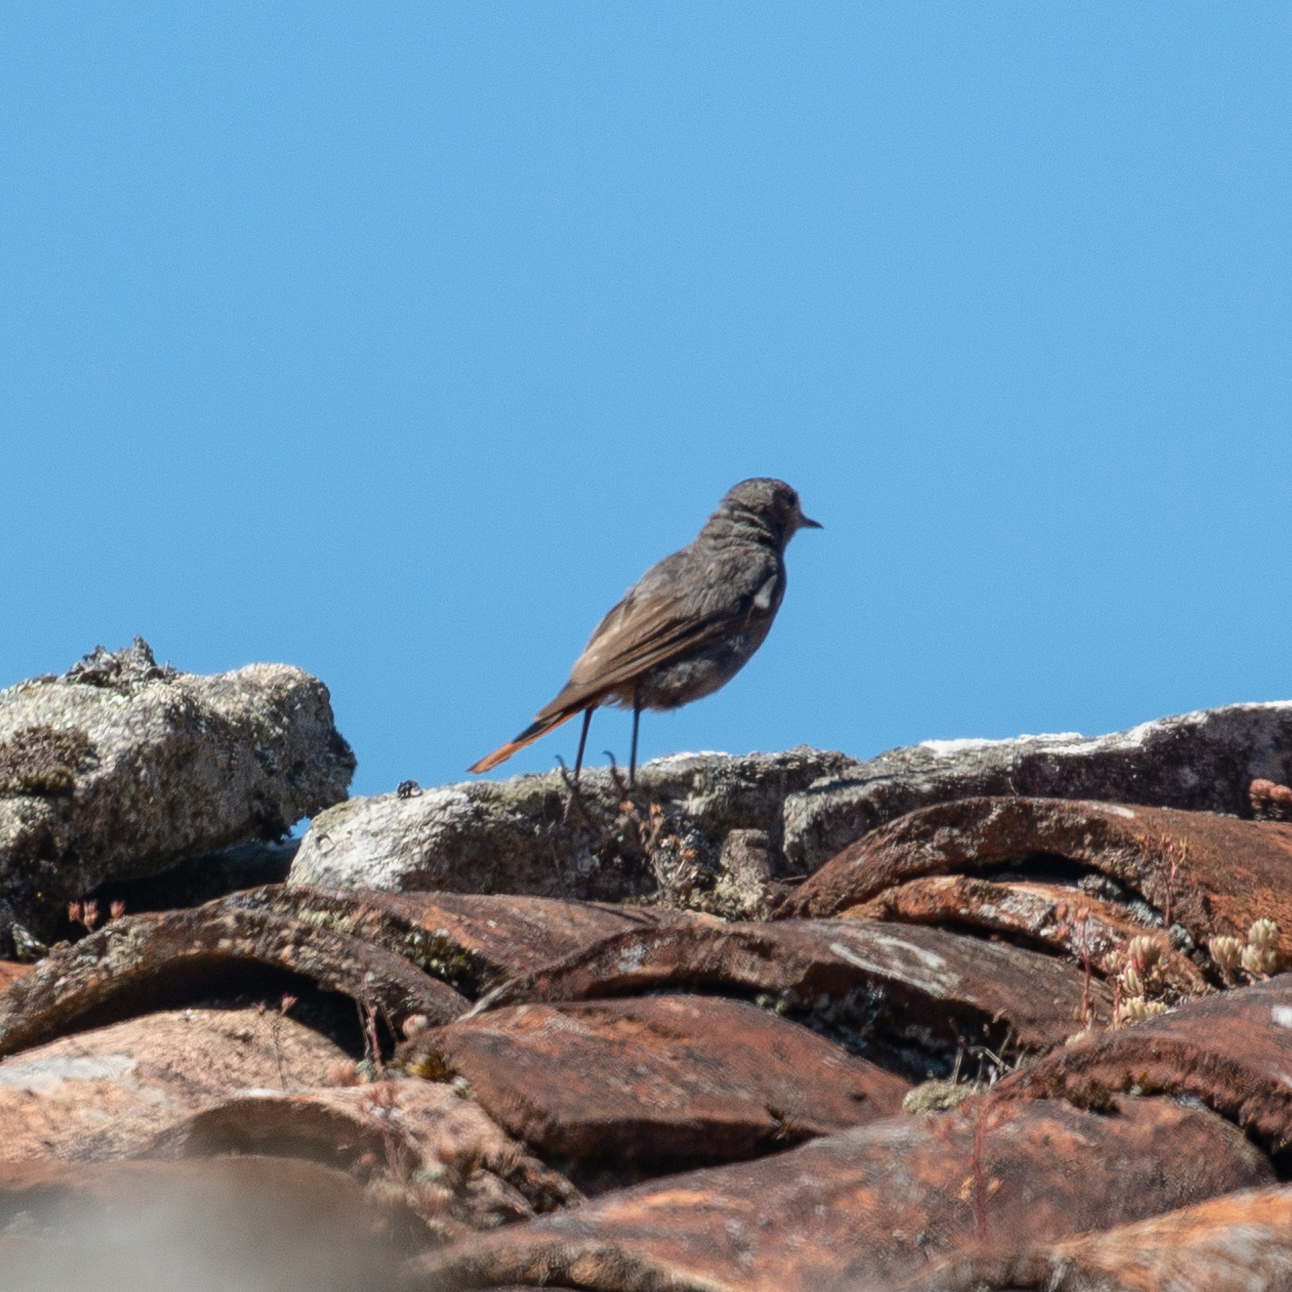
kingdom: Animalia
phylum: Chordata
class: Aves
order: Passeriformes
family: Muscicapidae
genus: Phoenicurus
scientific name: Phoenicurus ochruros
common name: Black redstart
